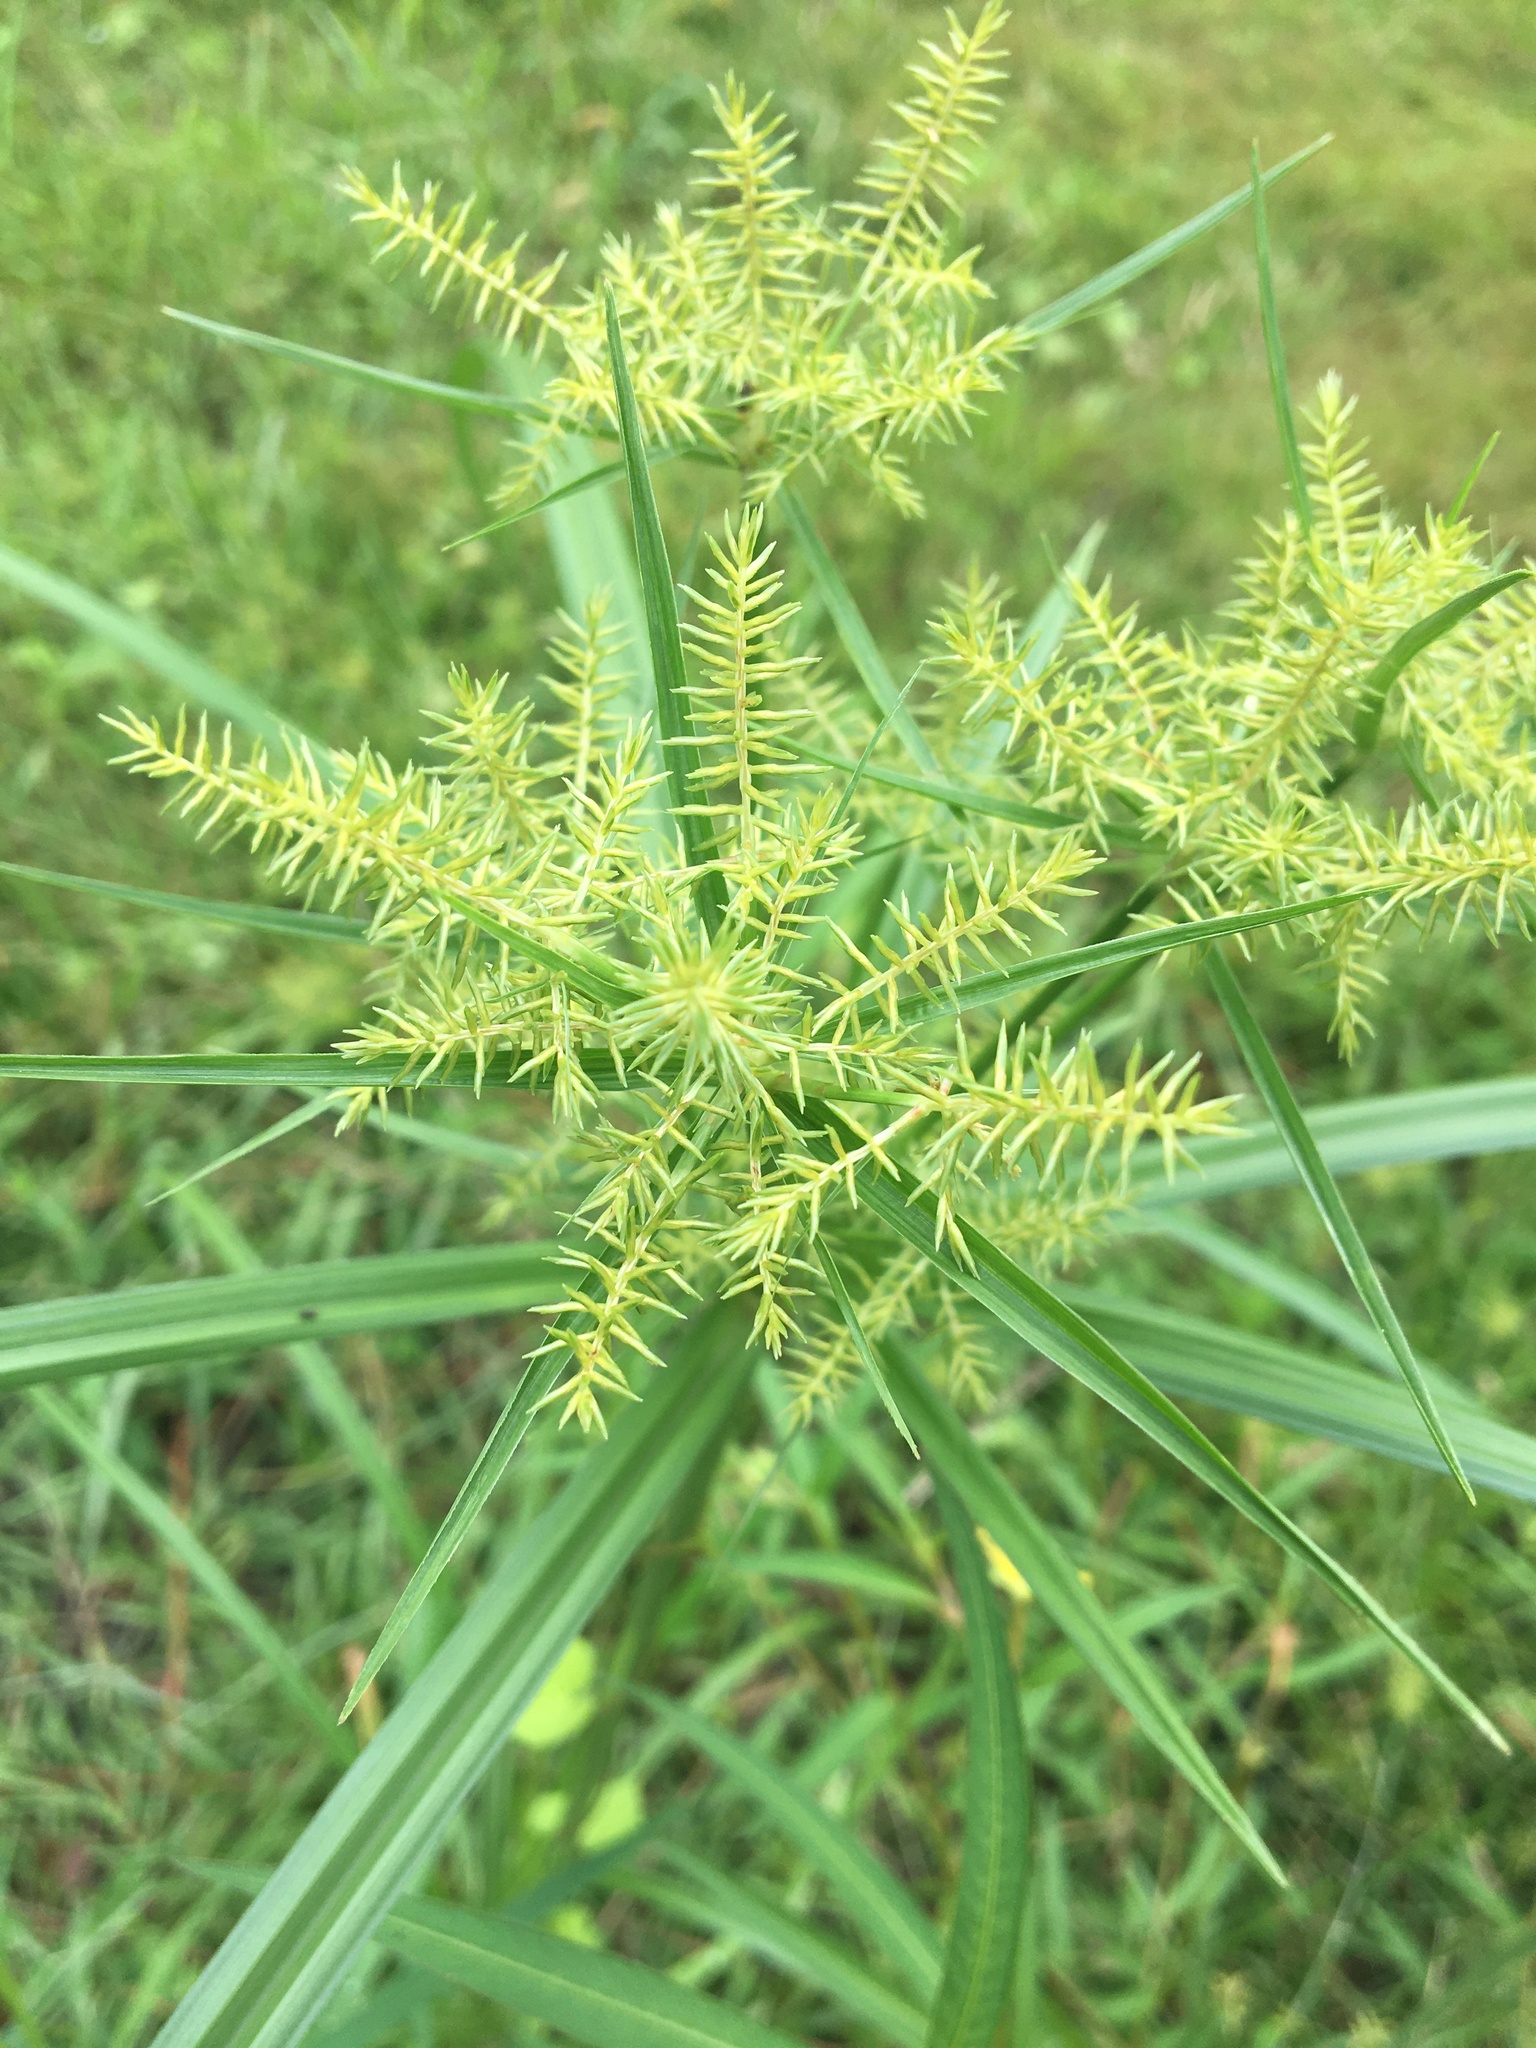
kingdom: Plantae
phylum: Tracheophyta
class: Liliopsida
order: Poales
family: Cyperaceae
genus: Cyperus
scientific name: Cyperus strigosus
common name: False nutsedge
